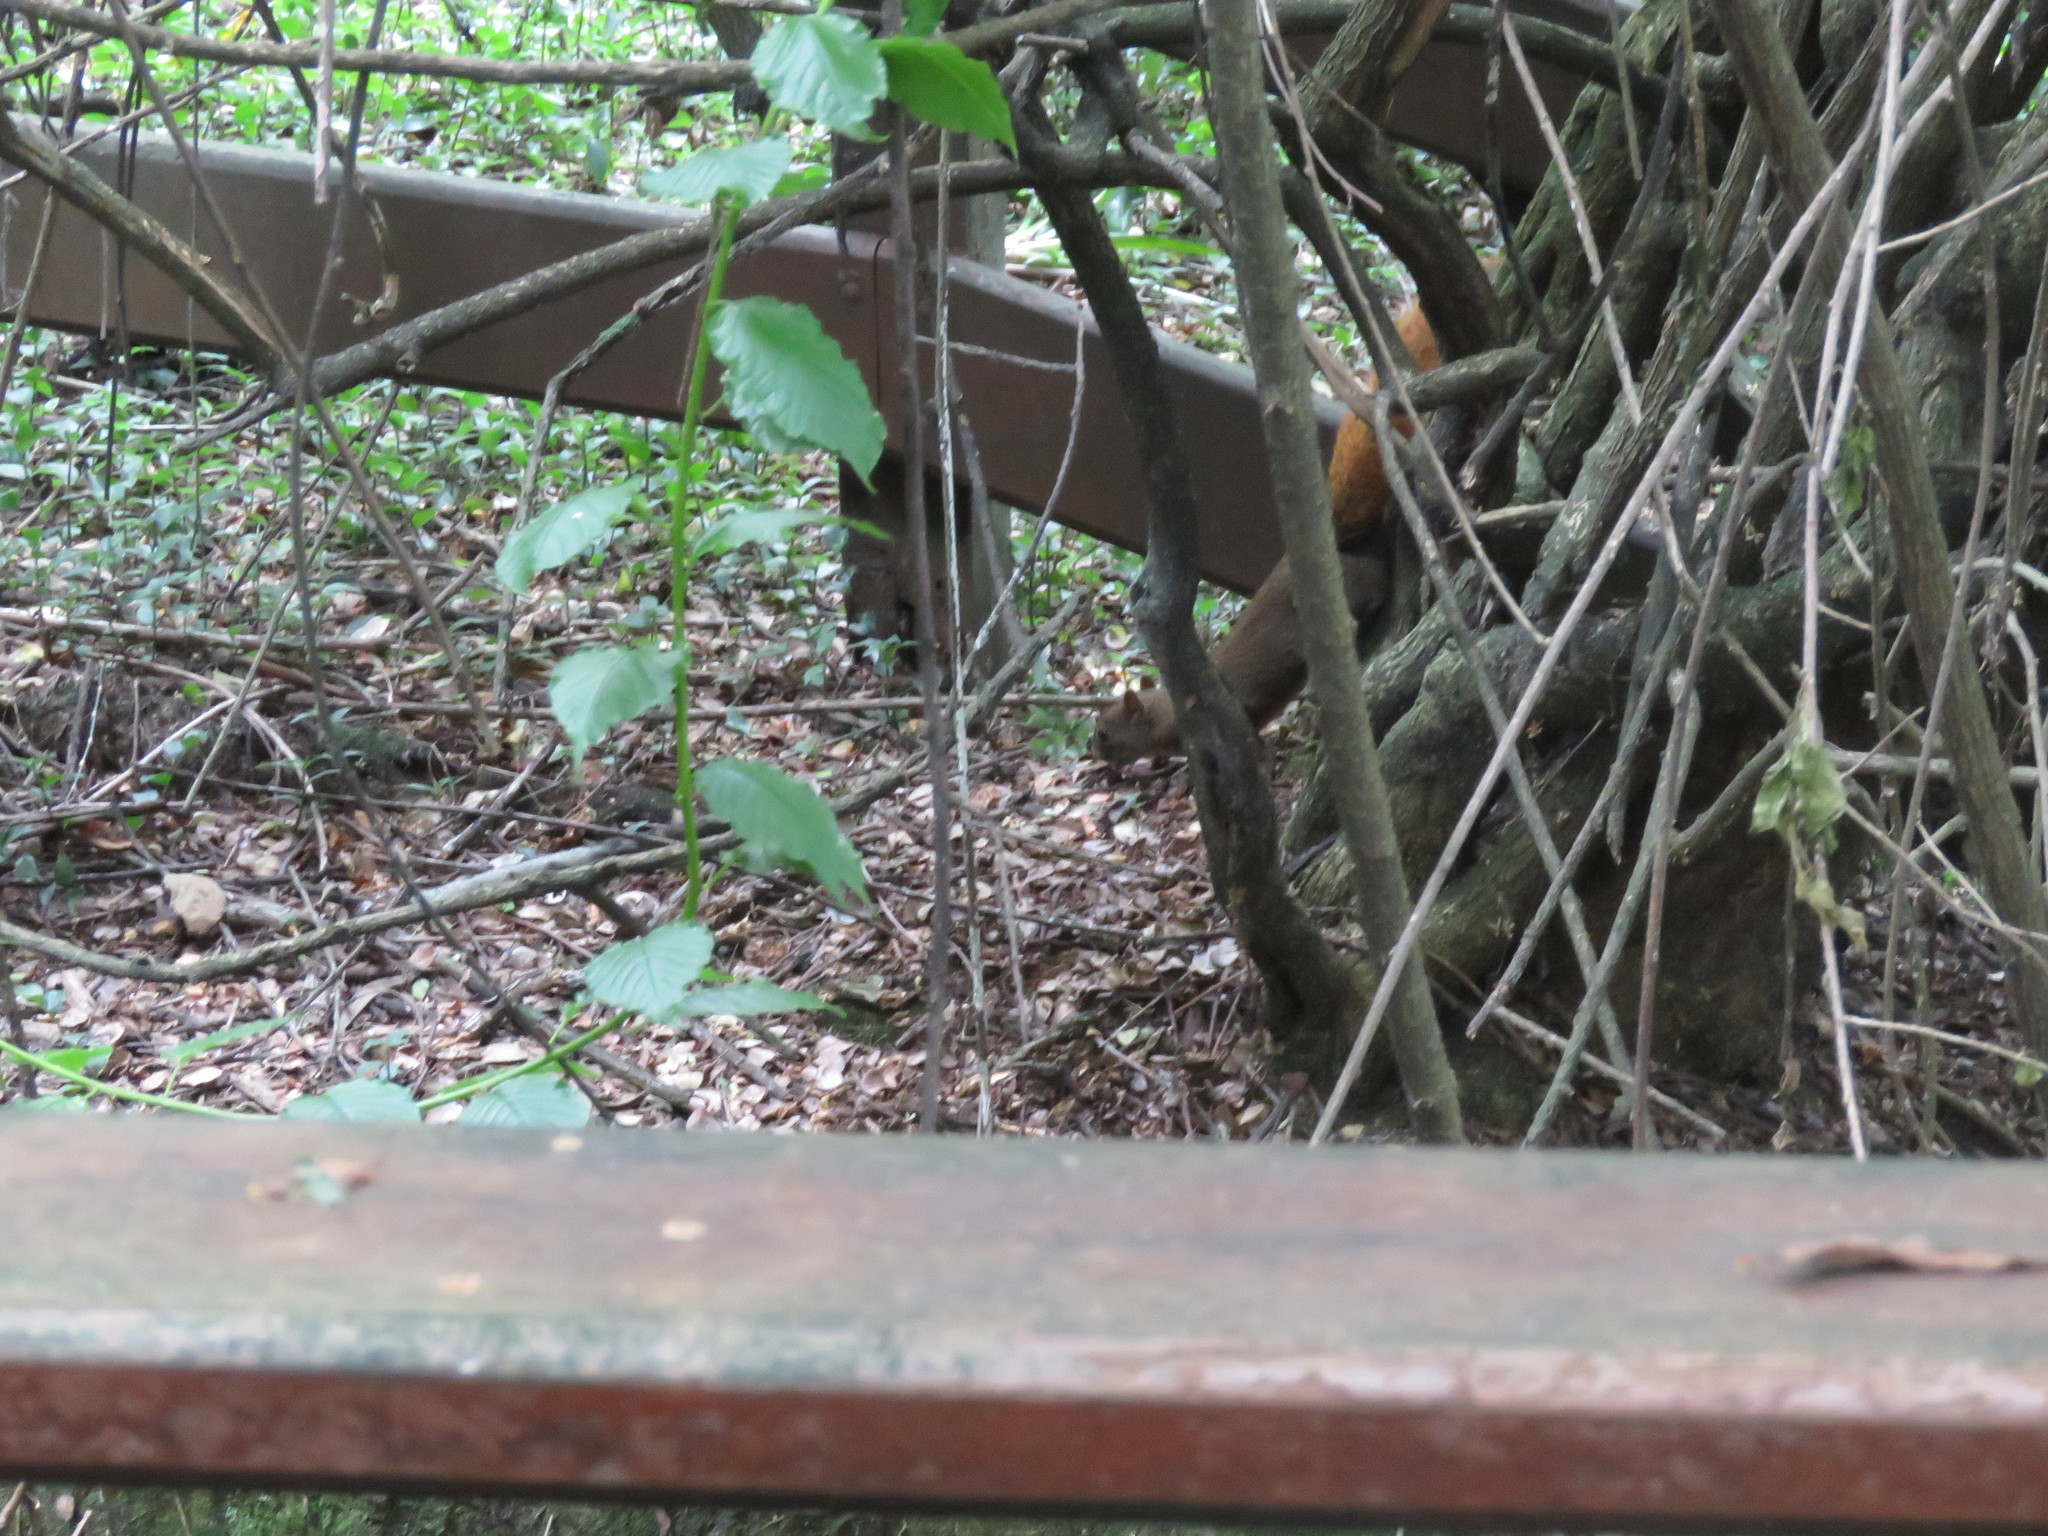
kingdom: Animalia
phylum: Chordata
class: Mammalia
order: Rodentia
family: Sciuridae
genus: Sciurus
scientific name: Sciurus granatensis
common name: Red-tailed squirrel
